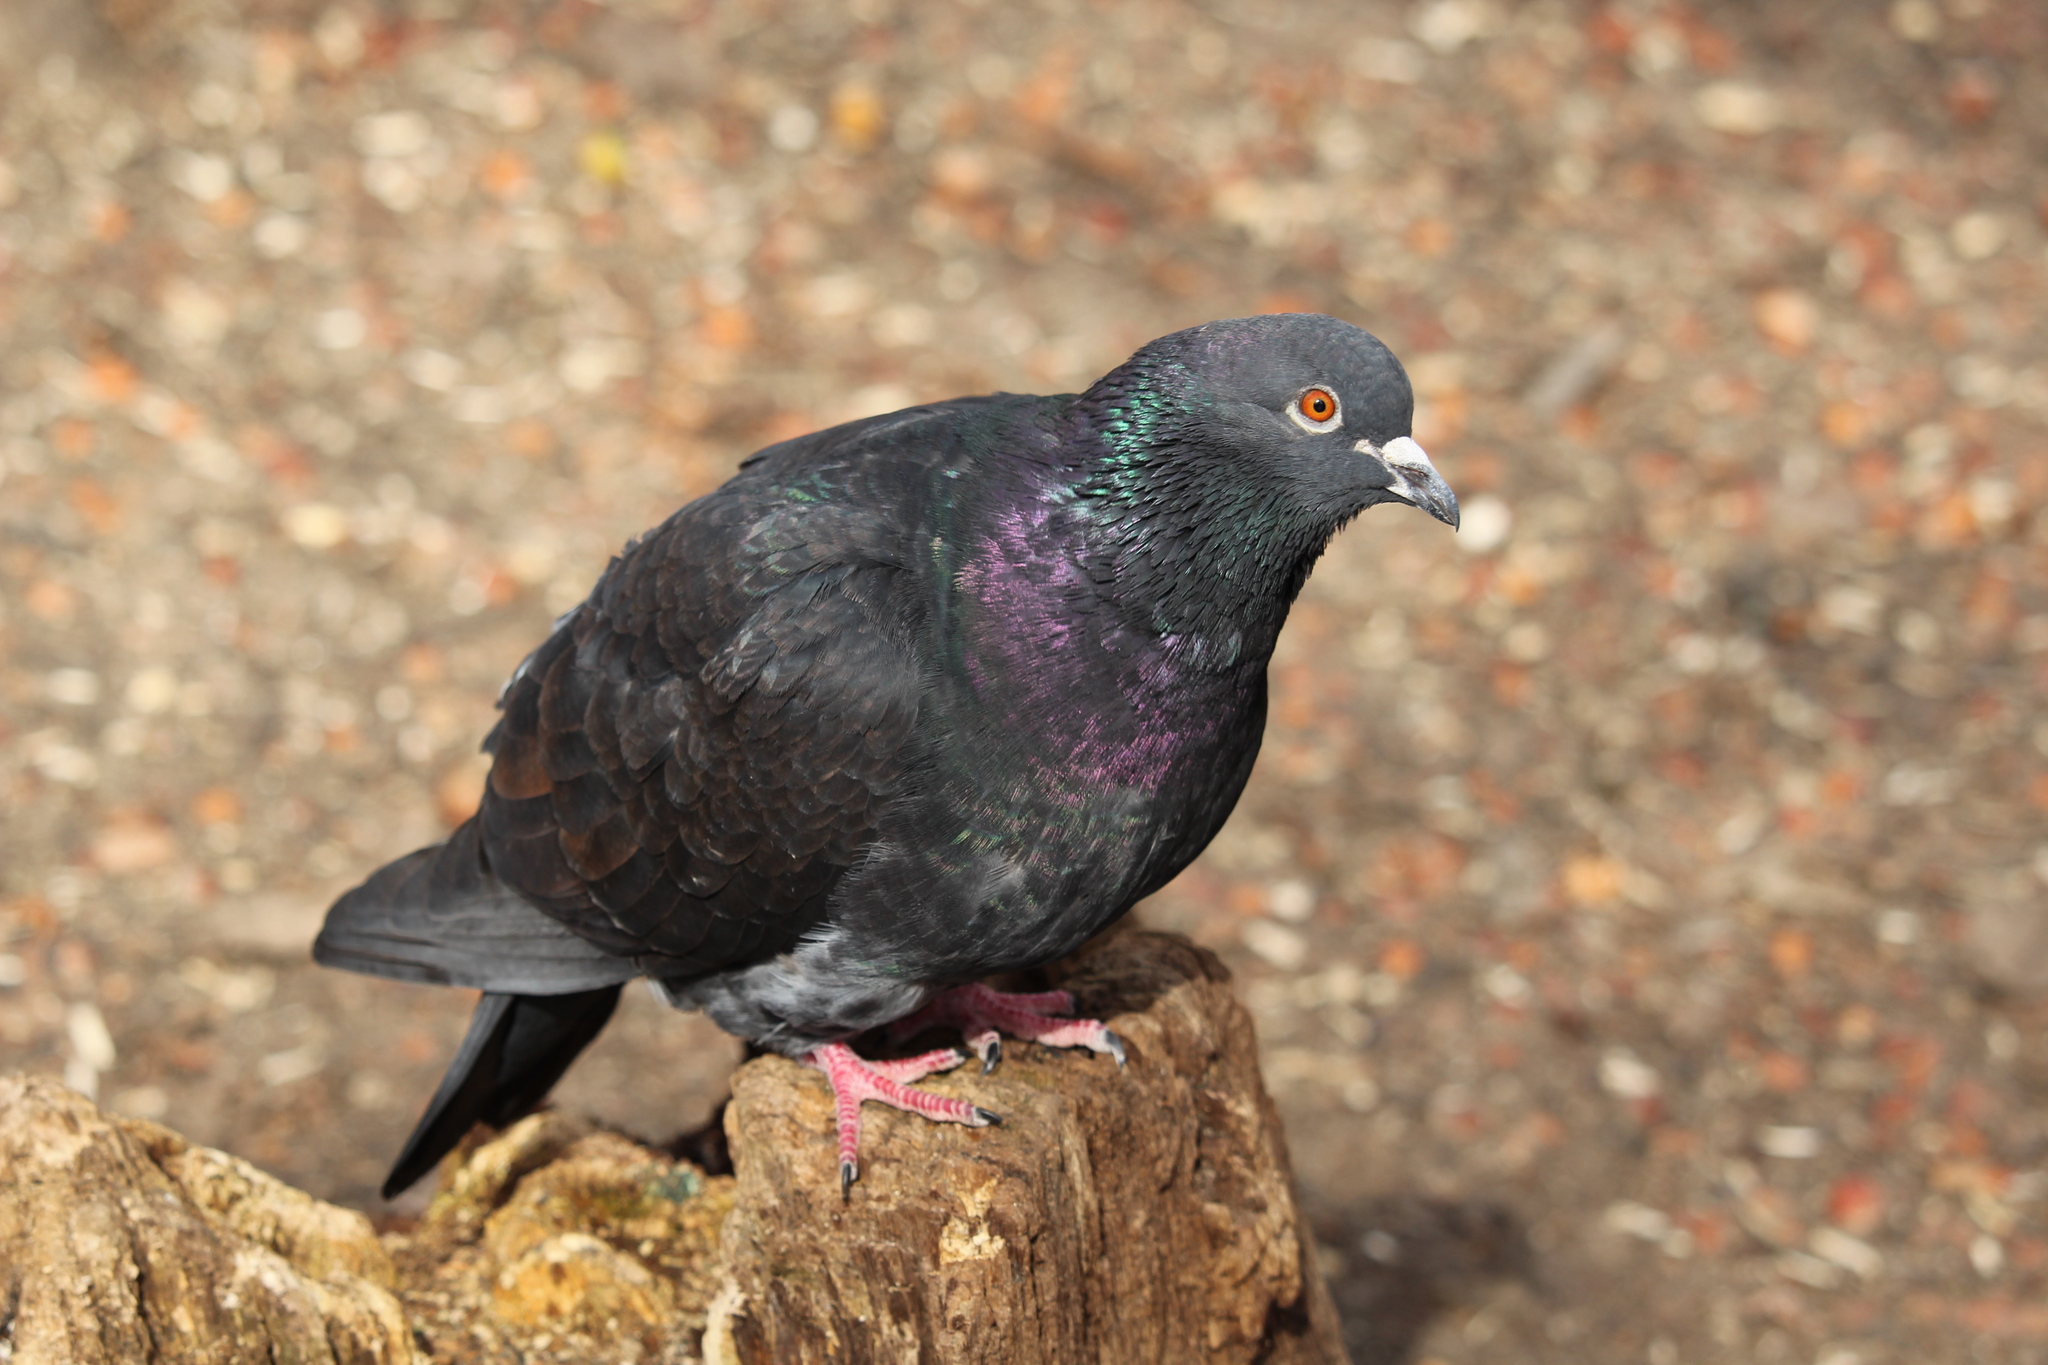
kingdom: Animalia
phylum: Chordata
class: Aves
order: Columbiformes
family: Columbidae
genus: Columba
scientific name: Columba livia
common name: Rock pigeon
